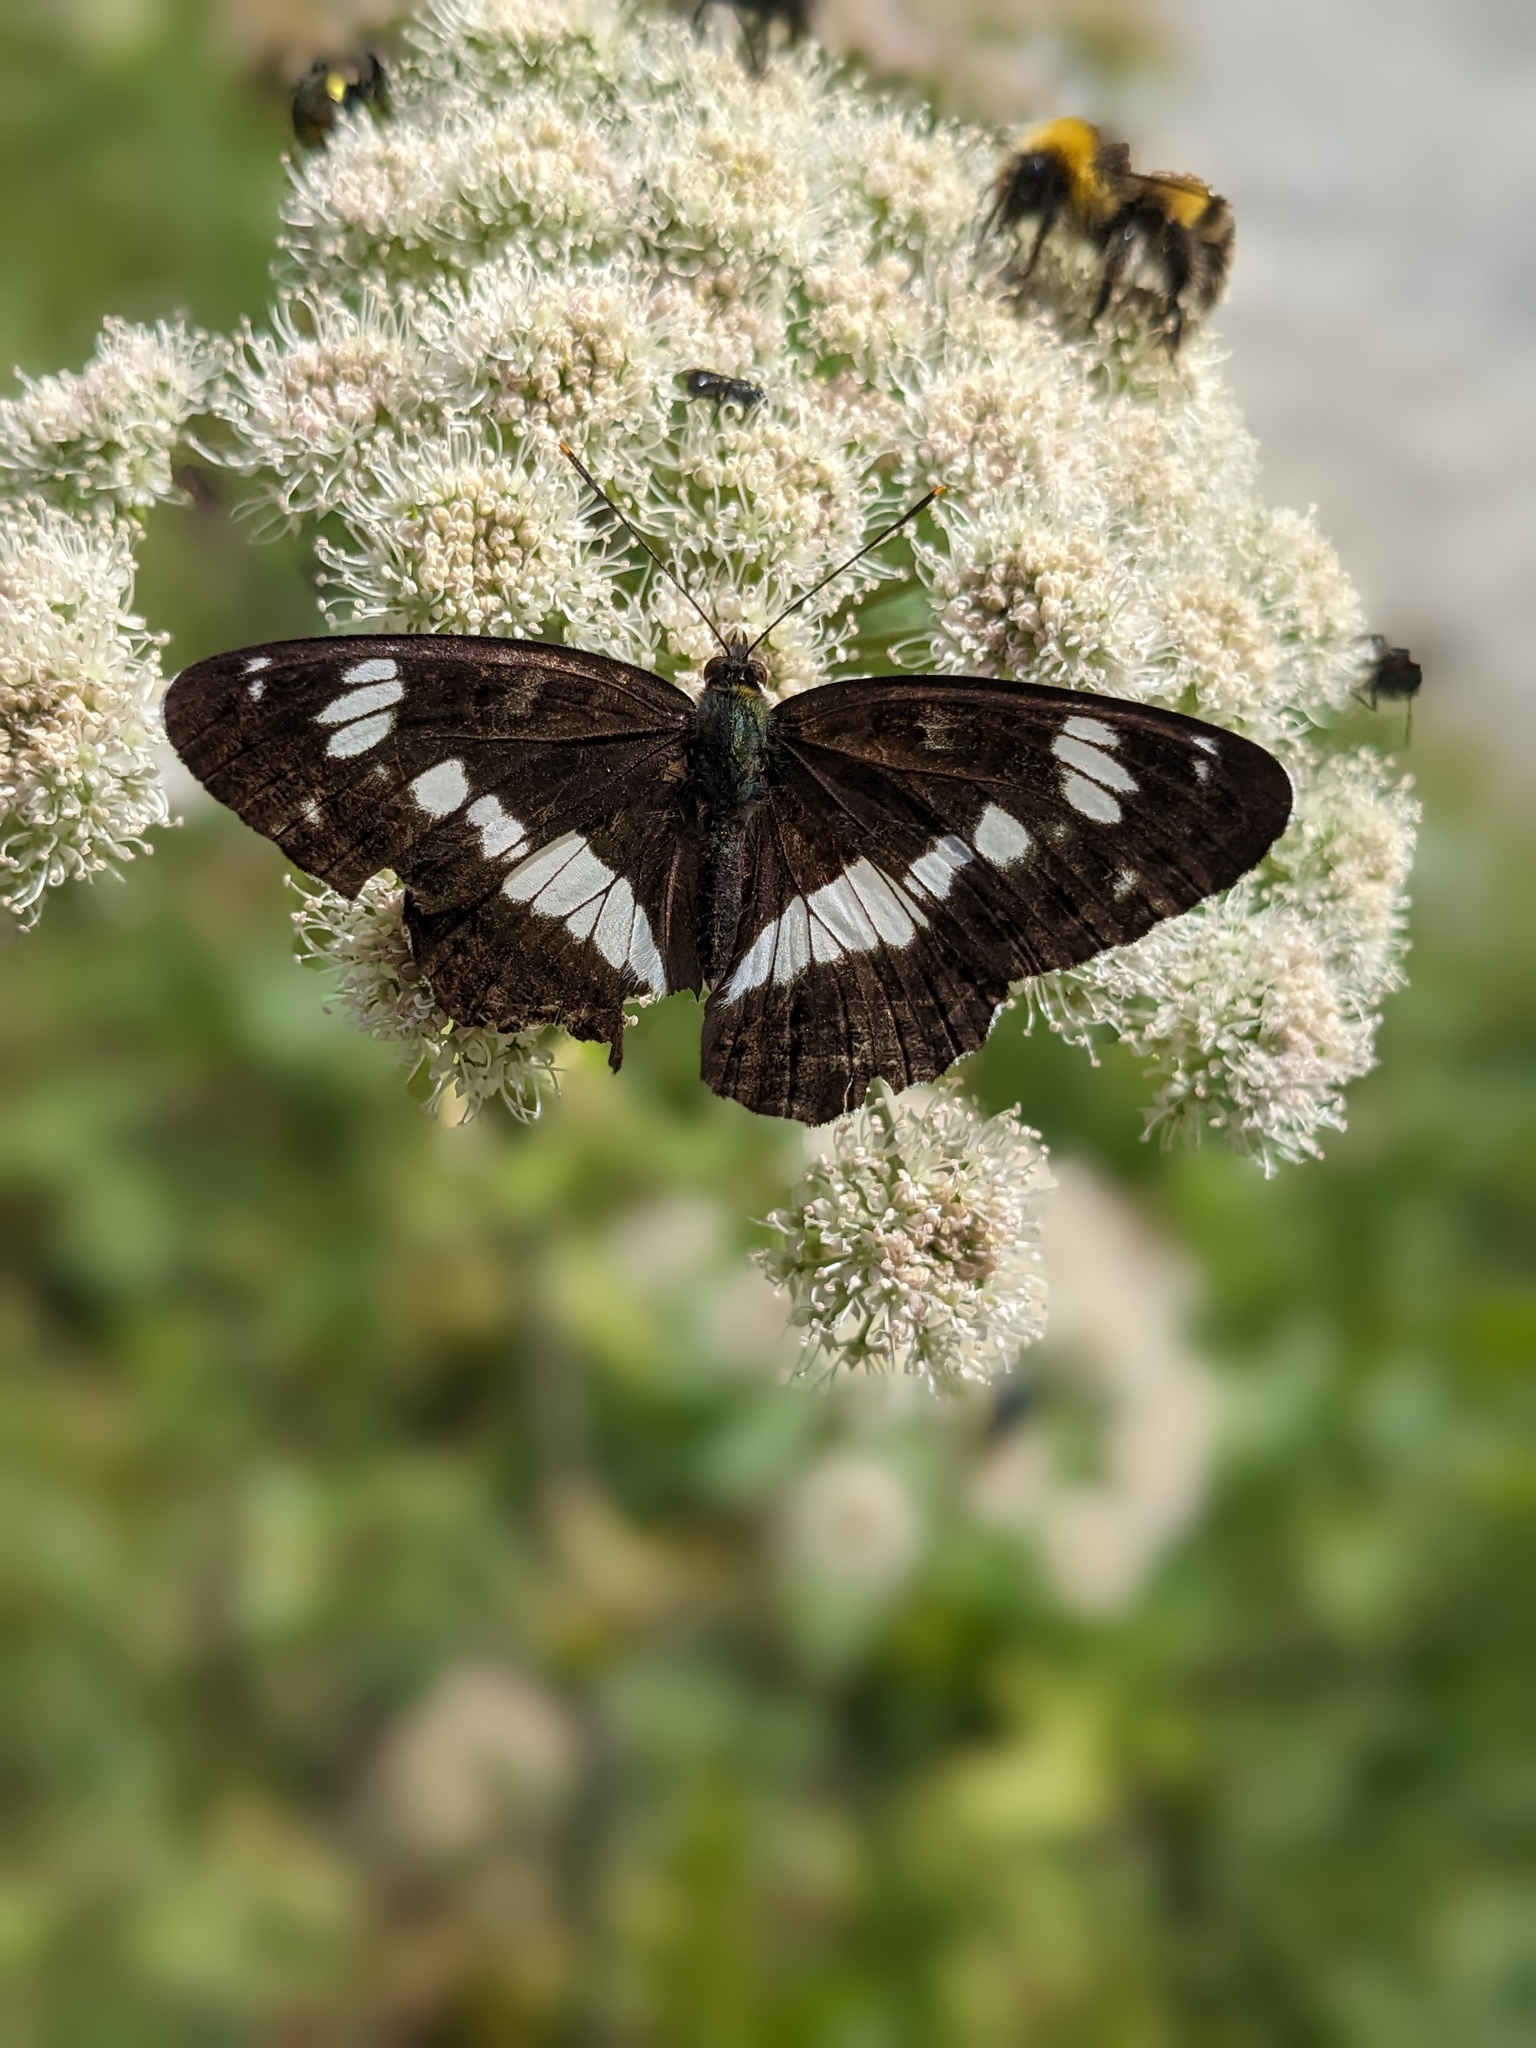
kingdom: Animalia
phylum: Arthropoda
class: Insecta
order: Lepidoptera
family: Nymphalidae
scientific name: Nymphalidae
